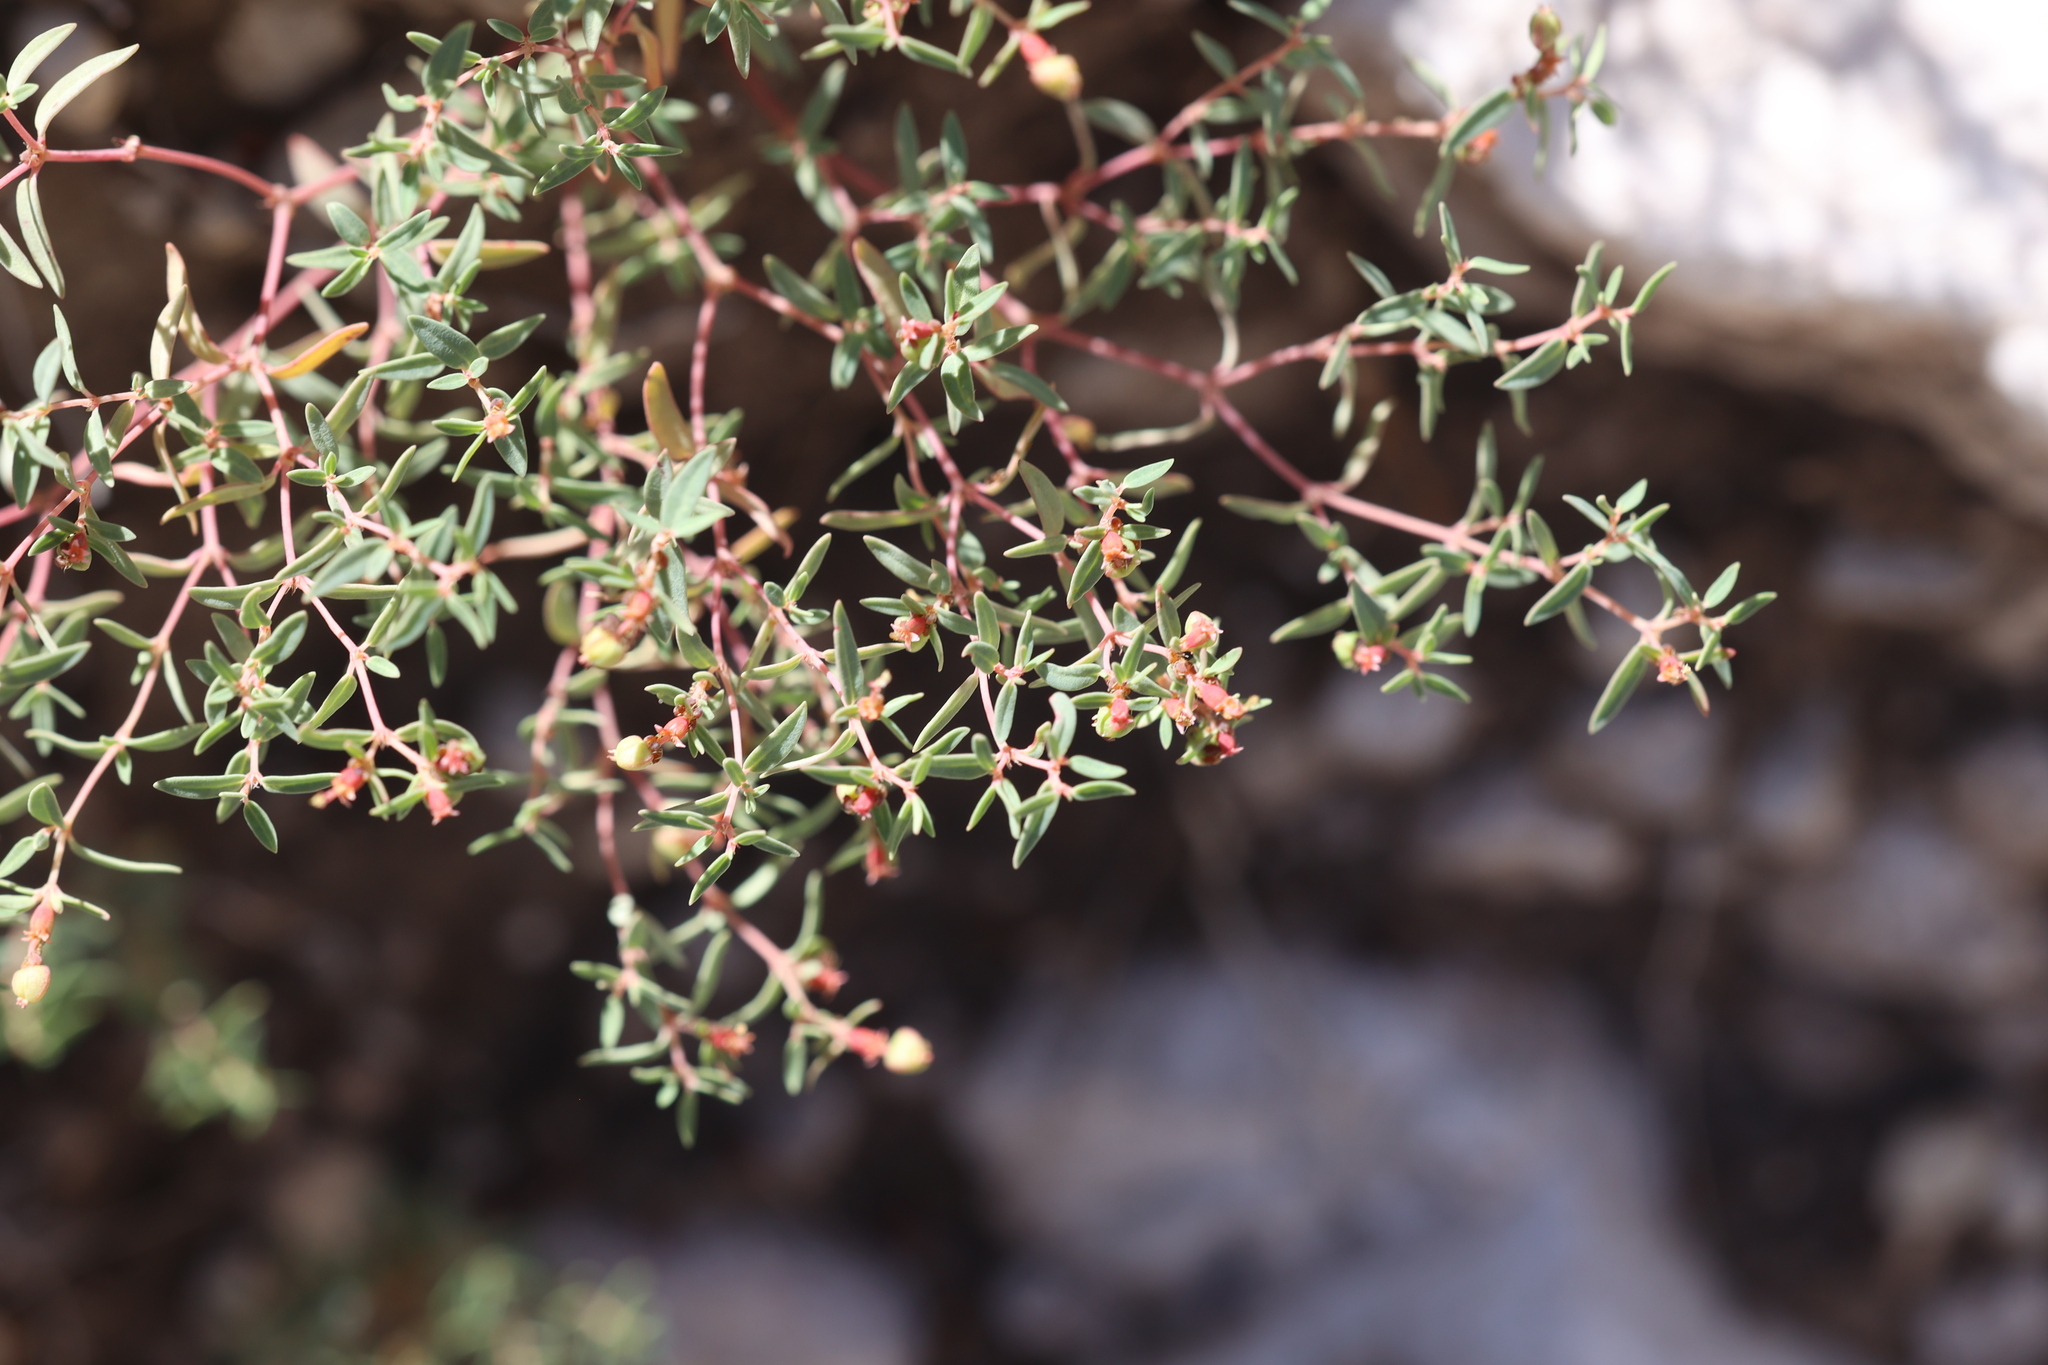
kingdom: Plantae
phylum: Tracheophyta
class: Magnoliopsida
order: Malpighiales
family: Euphorbiaceae
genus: Euphorbia
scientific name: Euphorbia chaetocalyx
